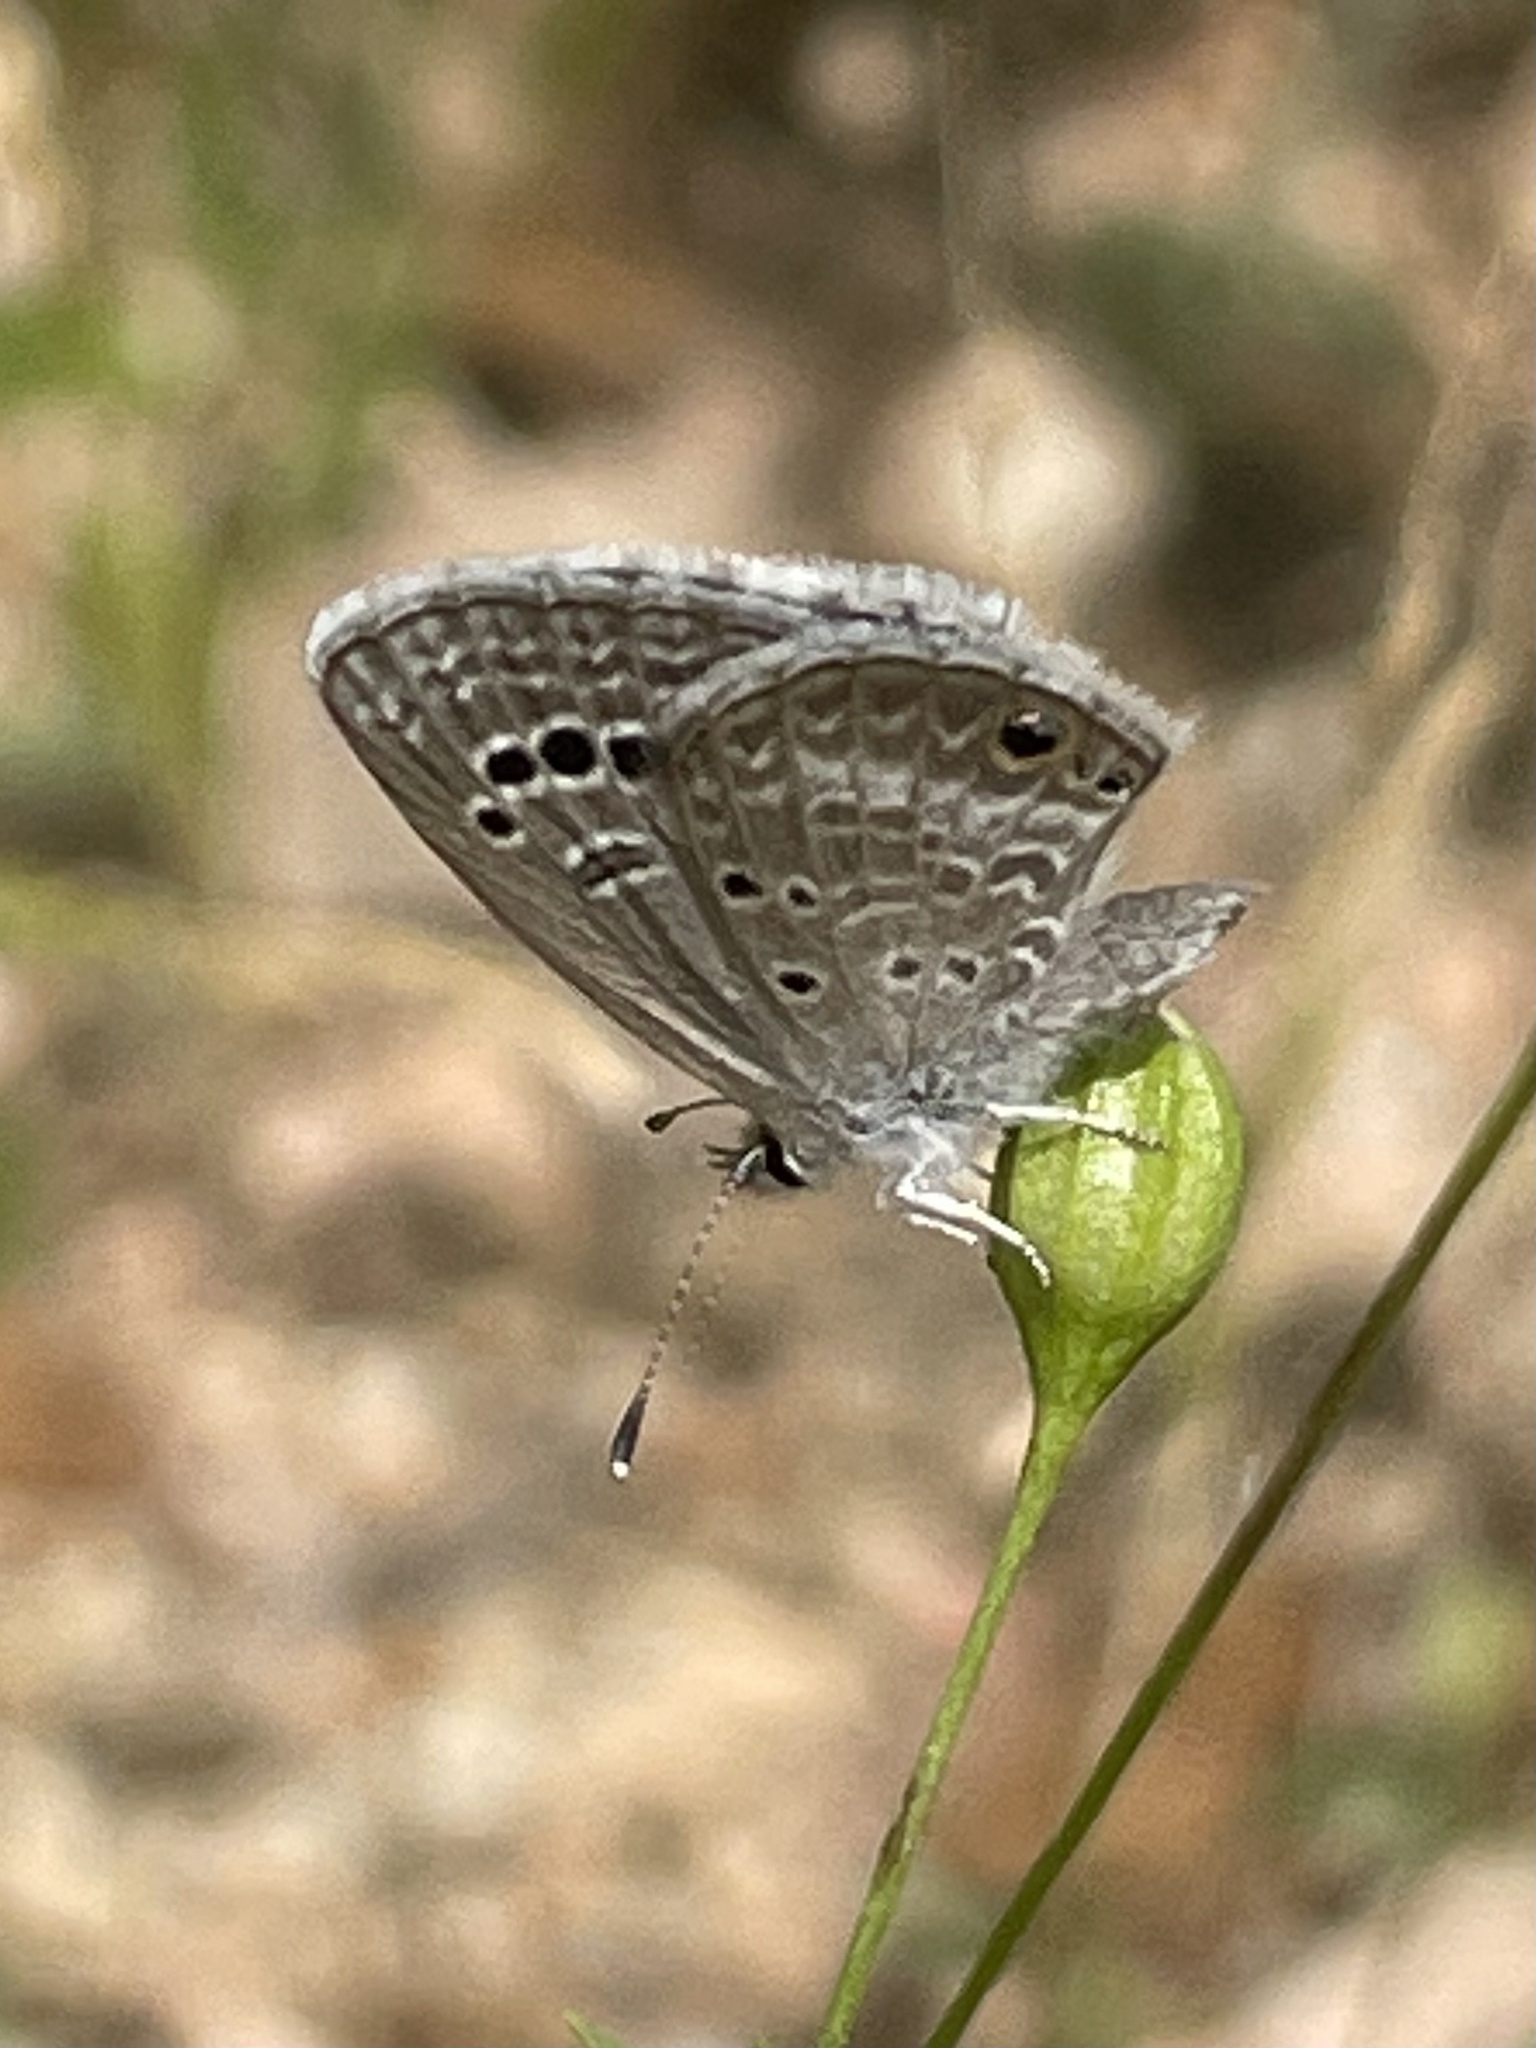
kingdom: Animalia
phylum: Arthropoda
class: Insecta
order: Lepidoptera
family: Lycaenidae
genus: Echinargus
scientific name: Echinargus isola
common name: Reakirt's blue
